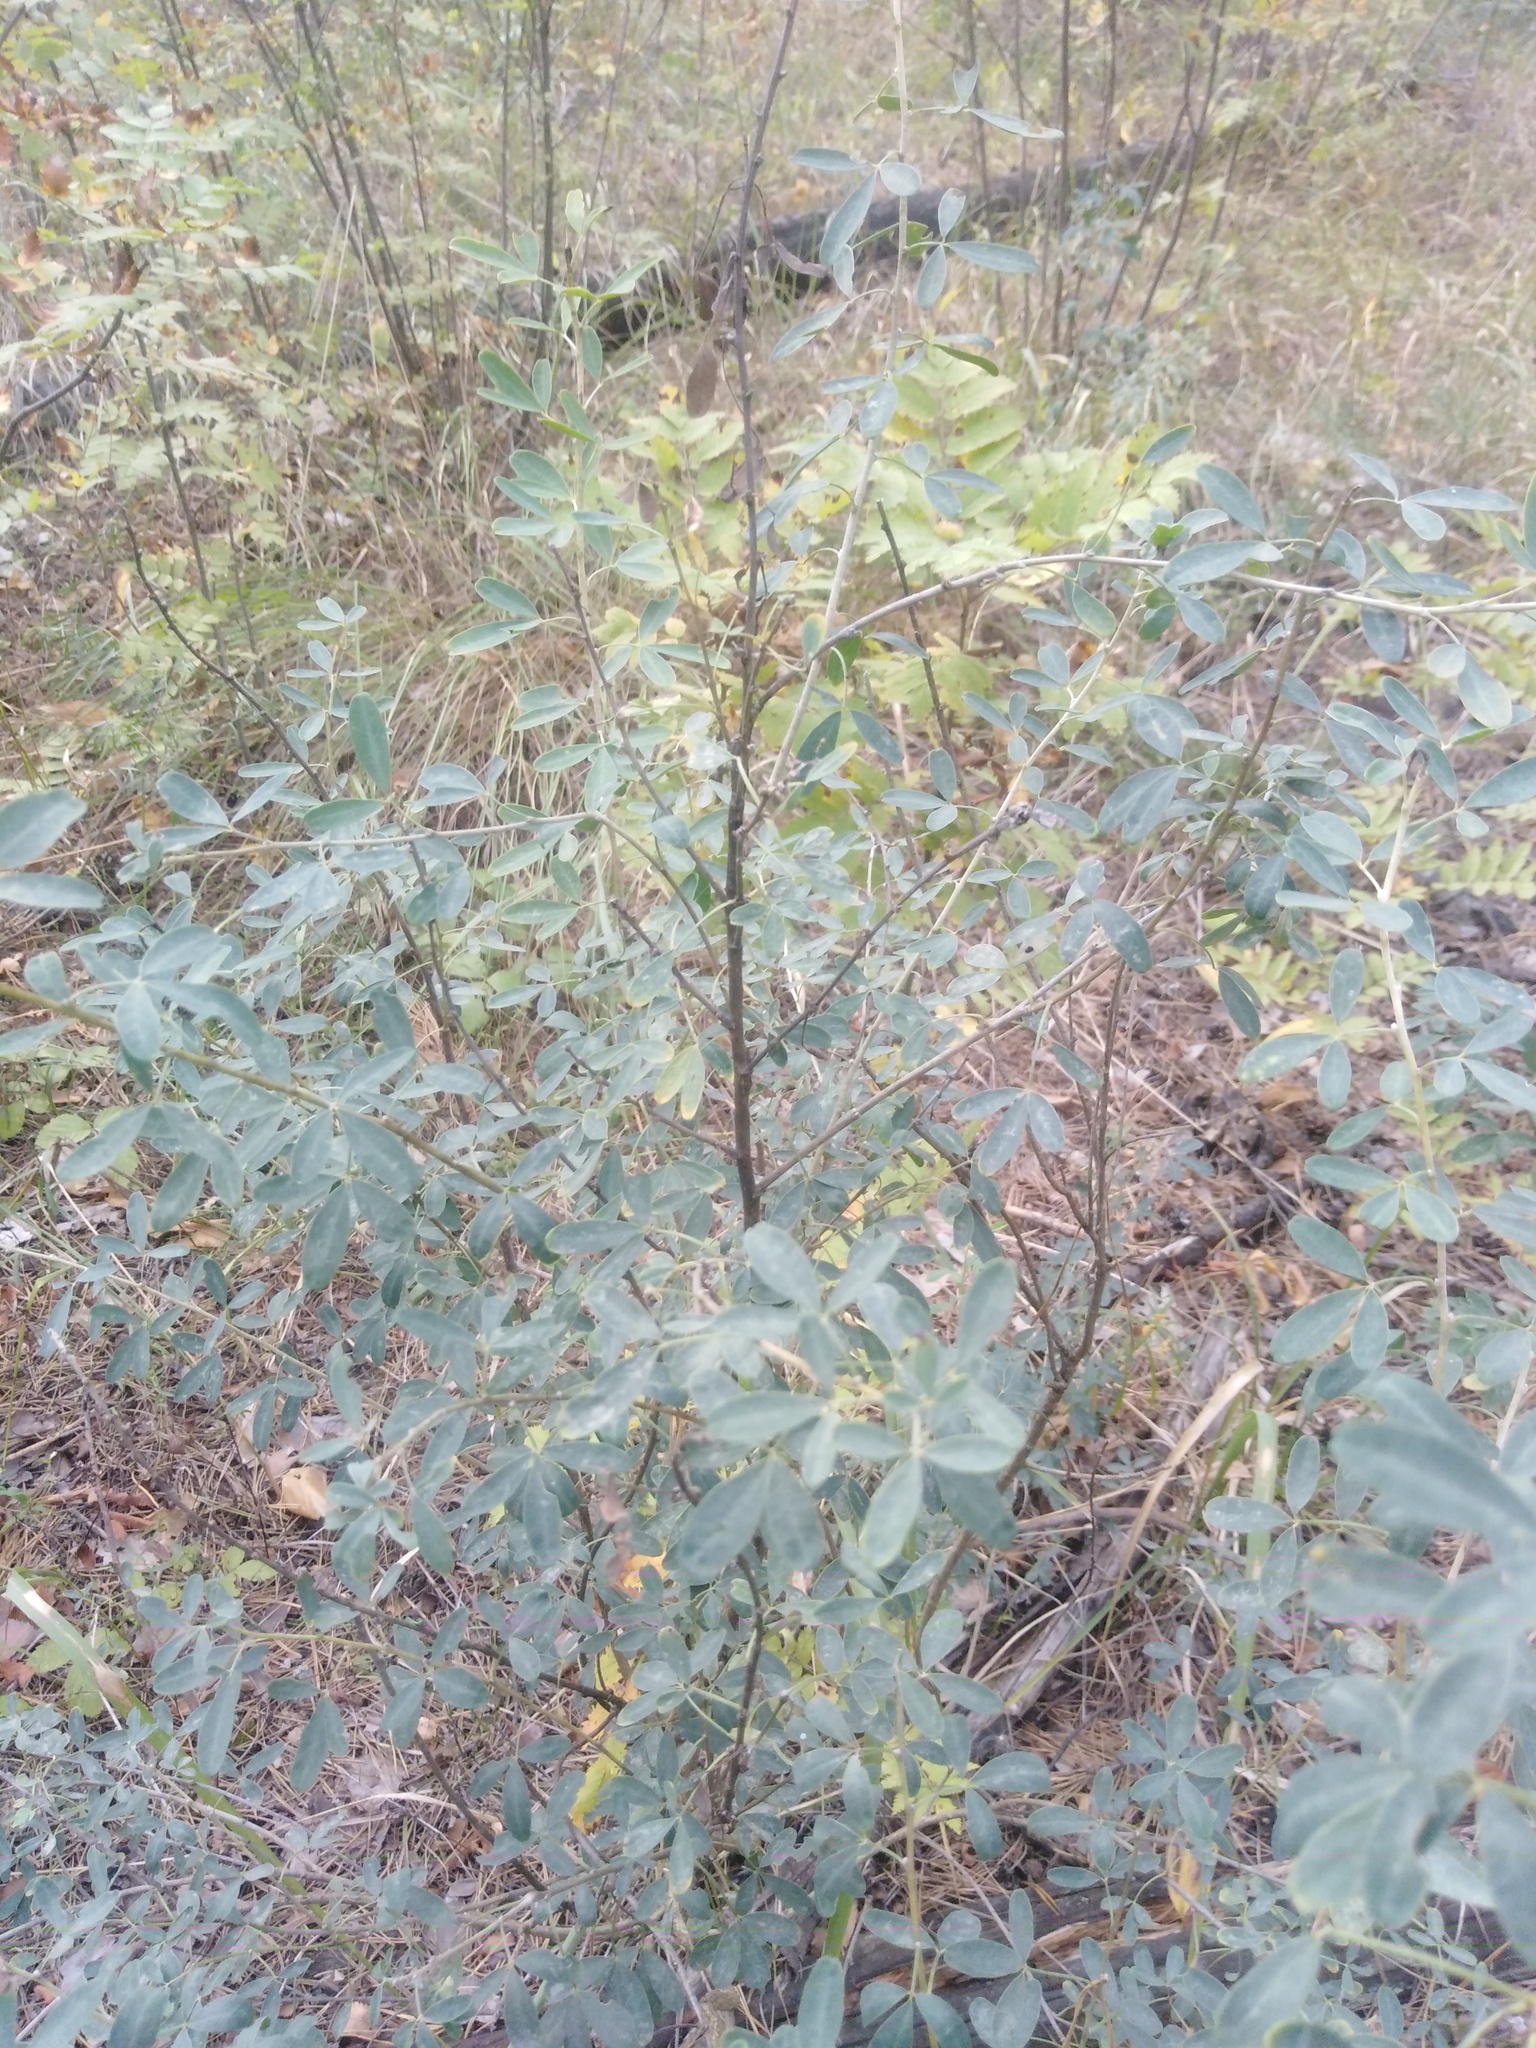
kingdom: Plantae
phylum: Tracheophyta
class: Magnoliopsida
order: Fabales
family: Fabaceae
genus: Chamaecytisus
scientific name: Chamaecytisus ruthenicus
